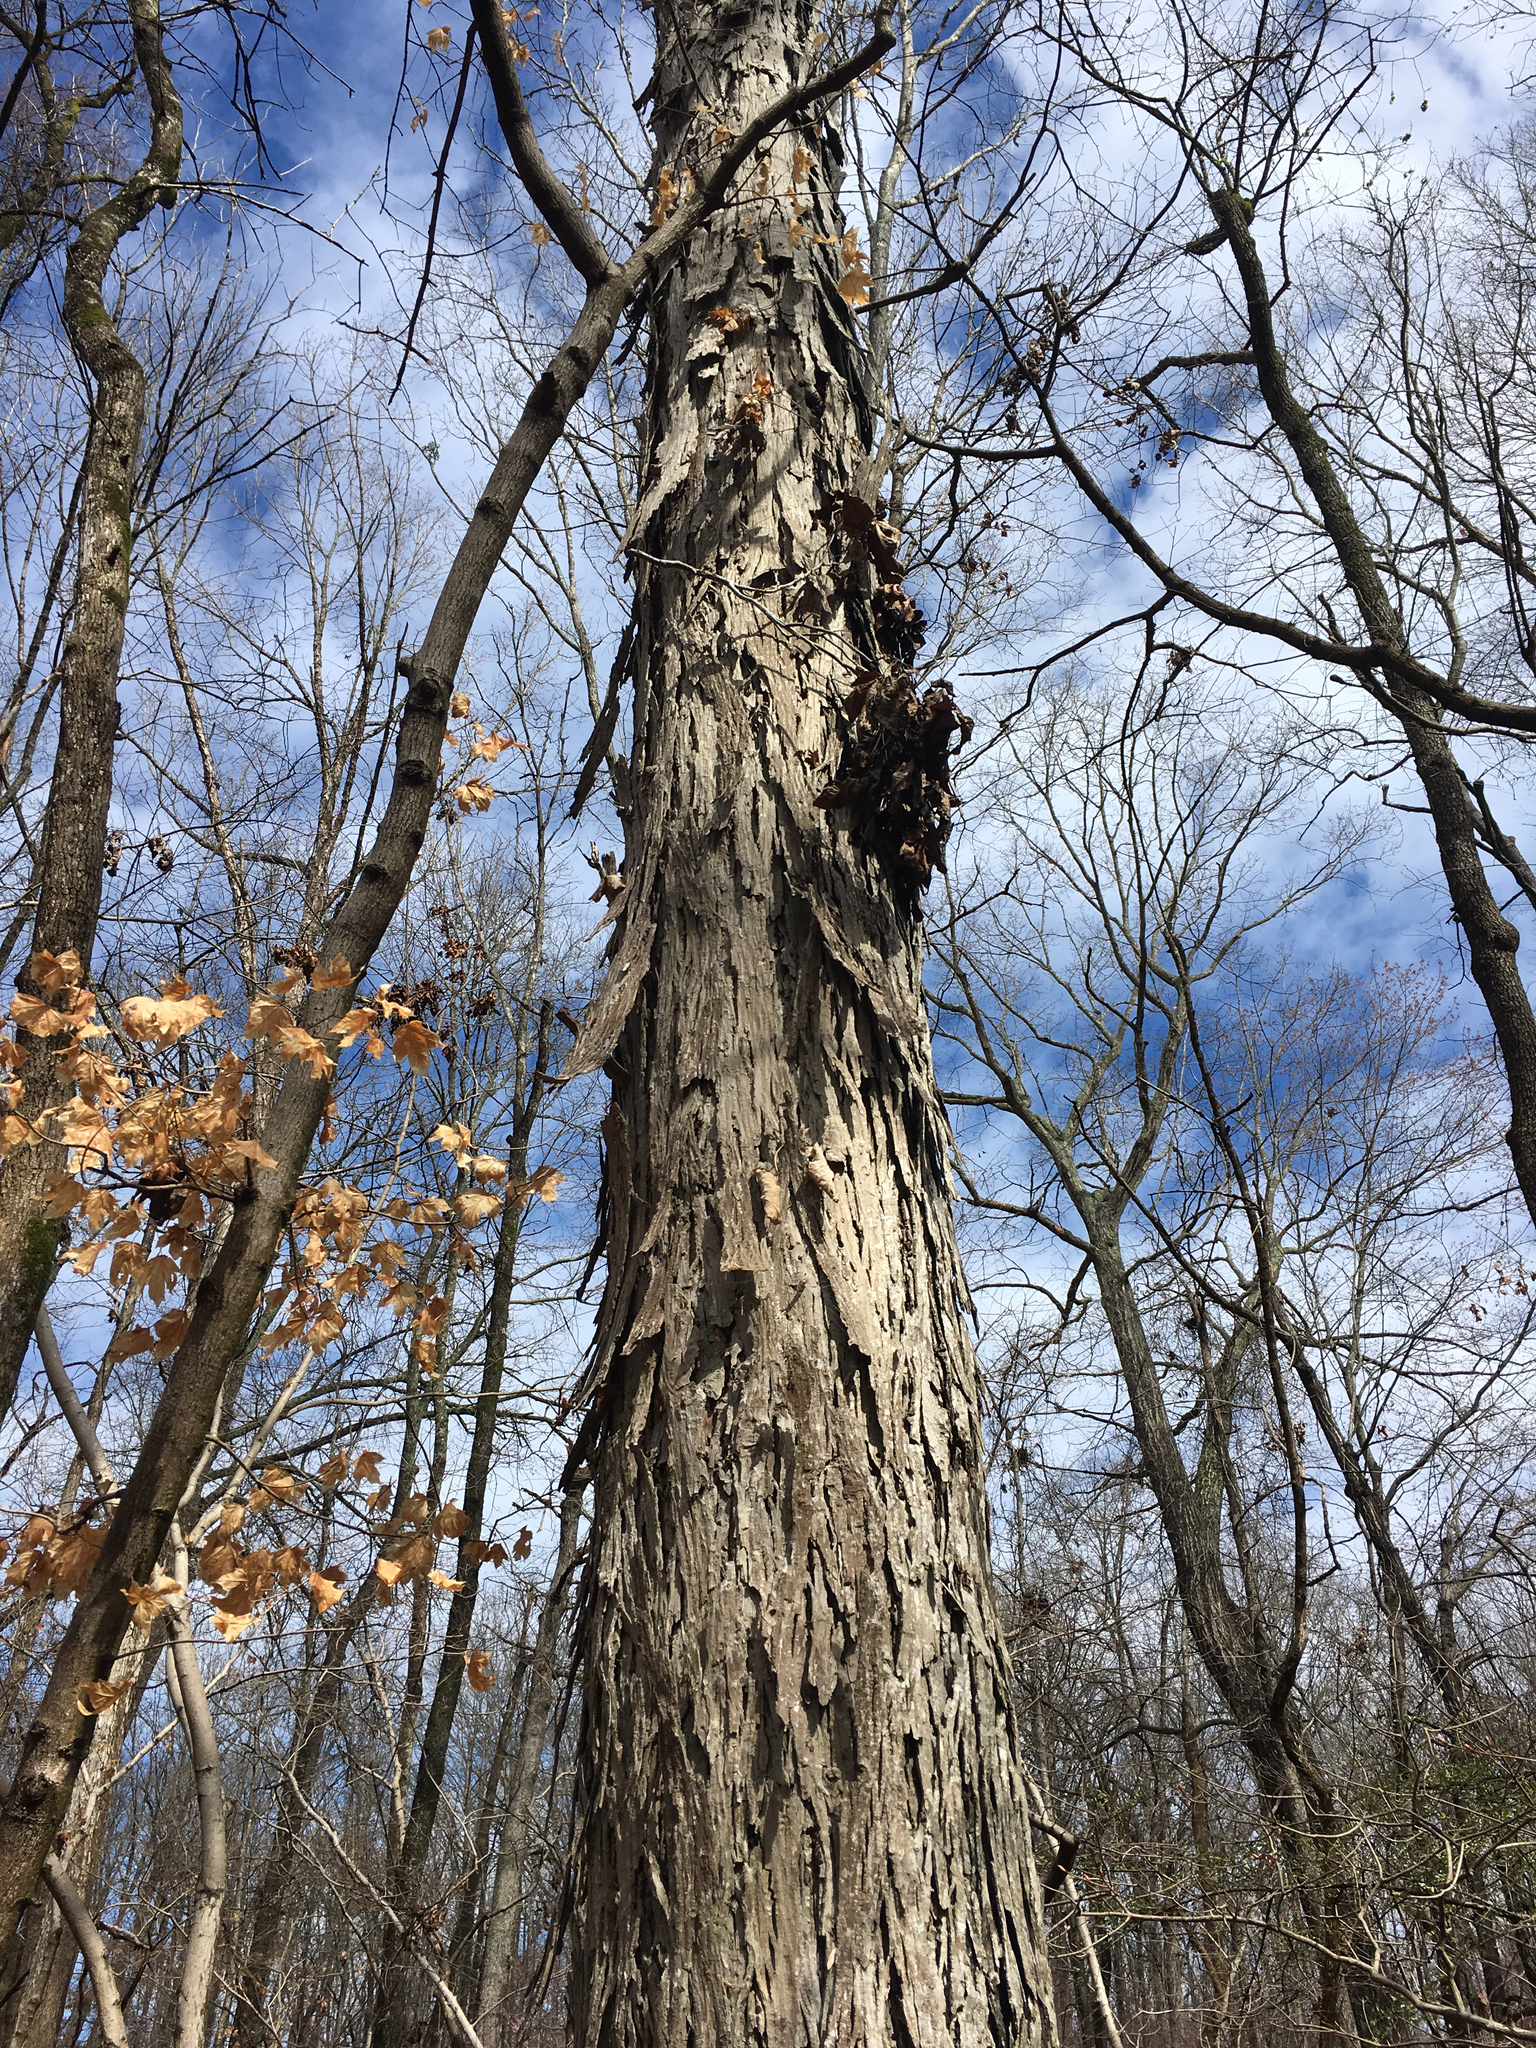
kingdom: Plantae
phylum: Tracheophyta
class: Magnoliopsida
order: Fagales
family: Juglandaceae
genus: Carya
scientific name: Carya carolinae-septentrionalis
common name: Carolina hickory
